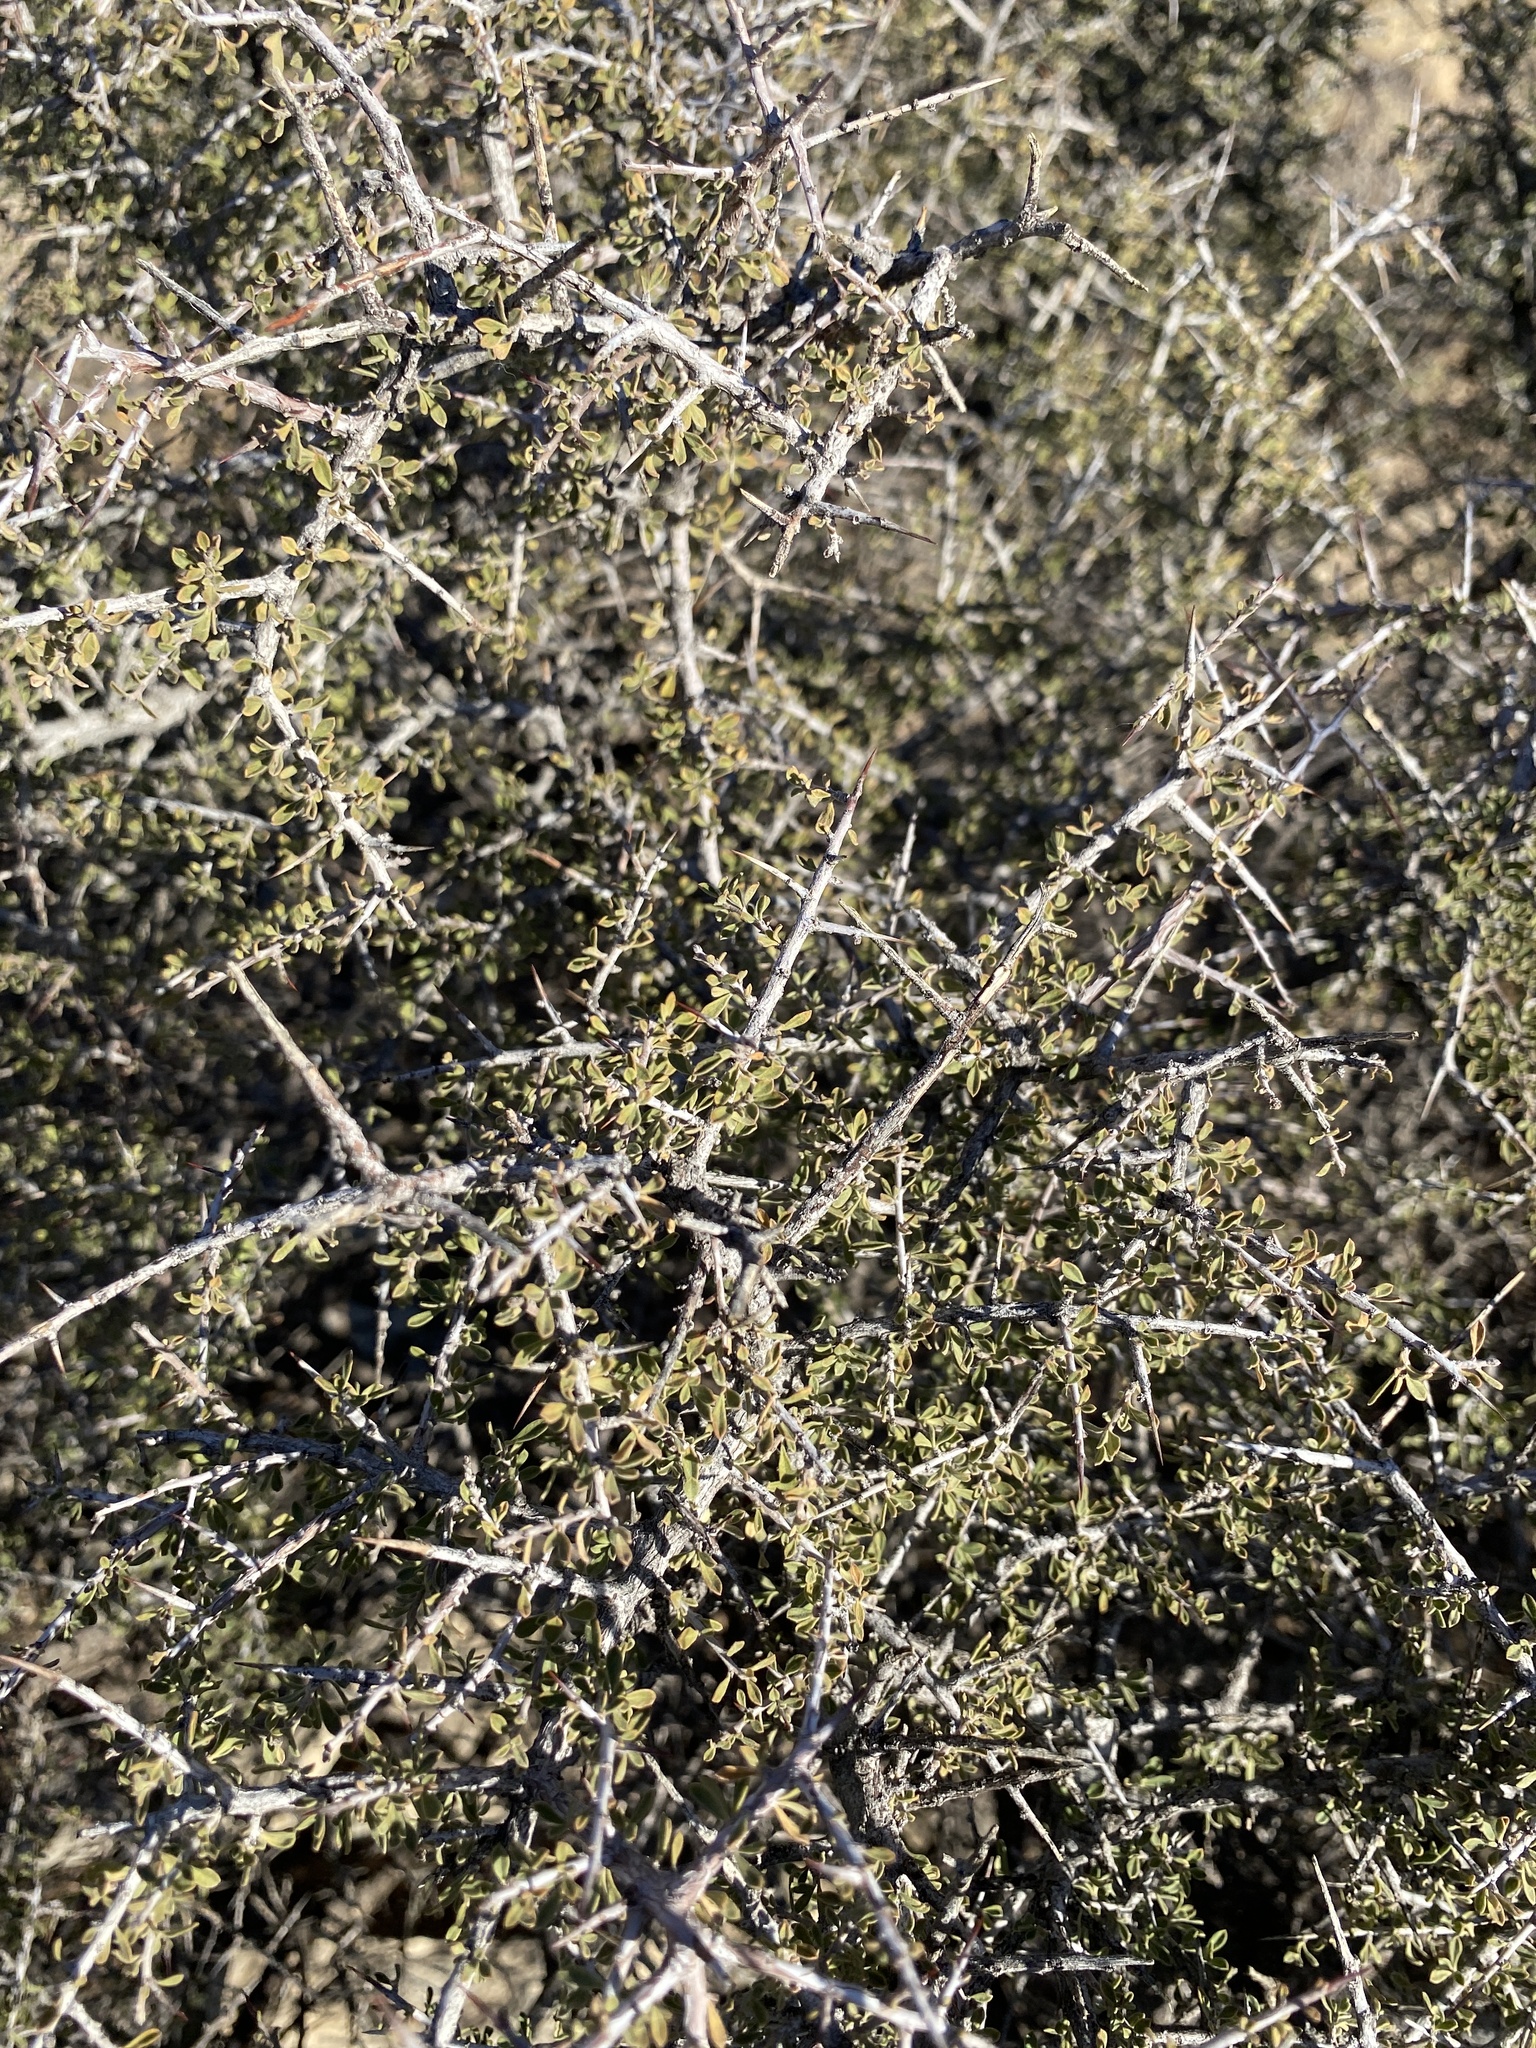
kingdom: Plantae
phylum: Tracheophyta
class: Magnoliopsida
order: Rosales
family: Rhamnaceae
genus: Condalia
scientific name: Condalia warnockii
